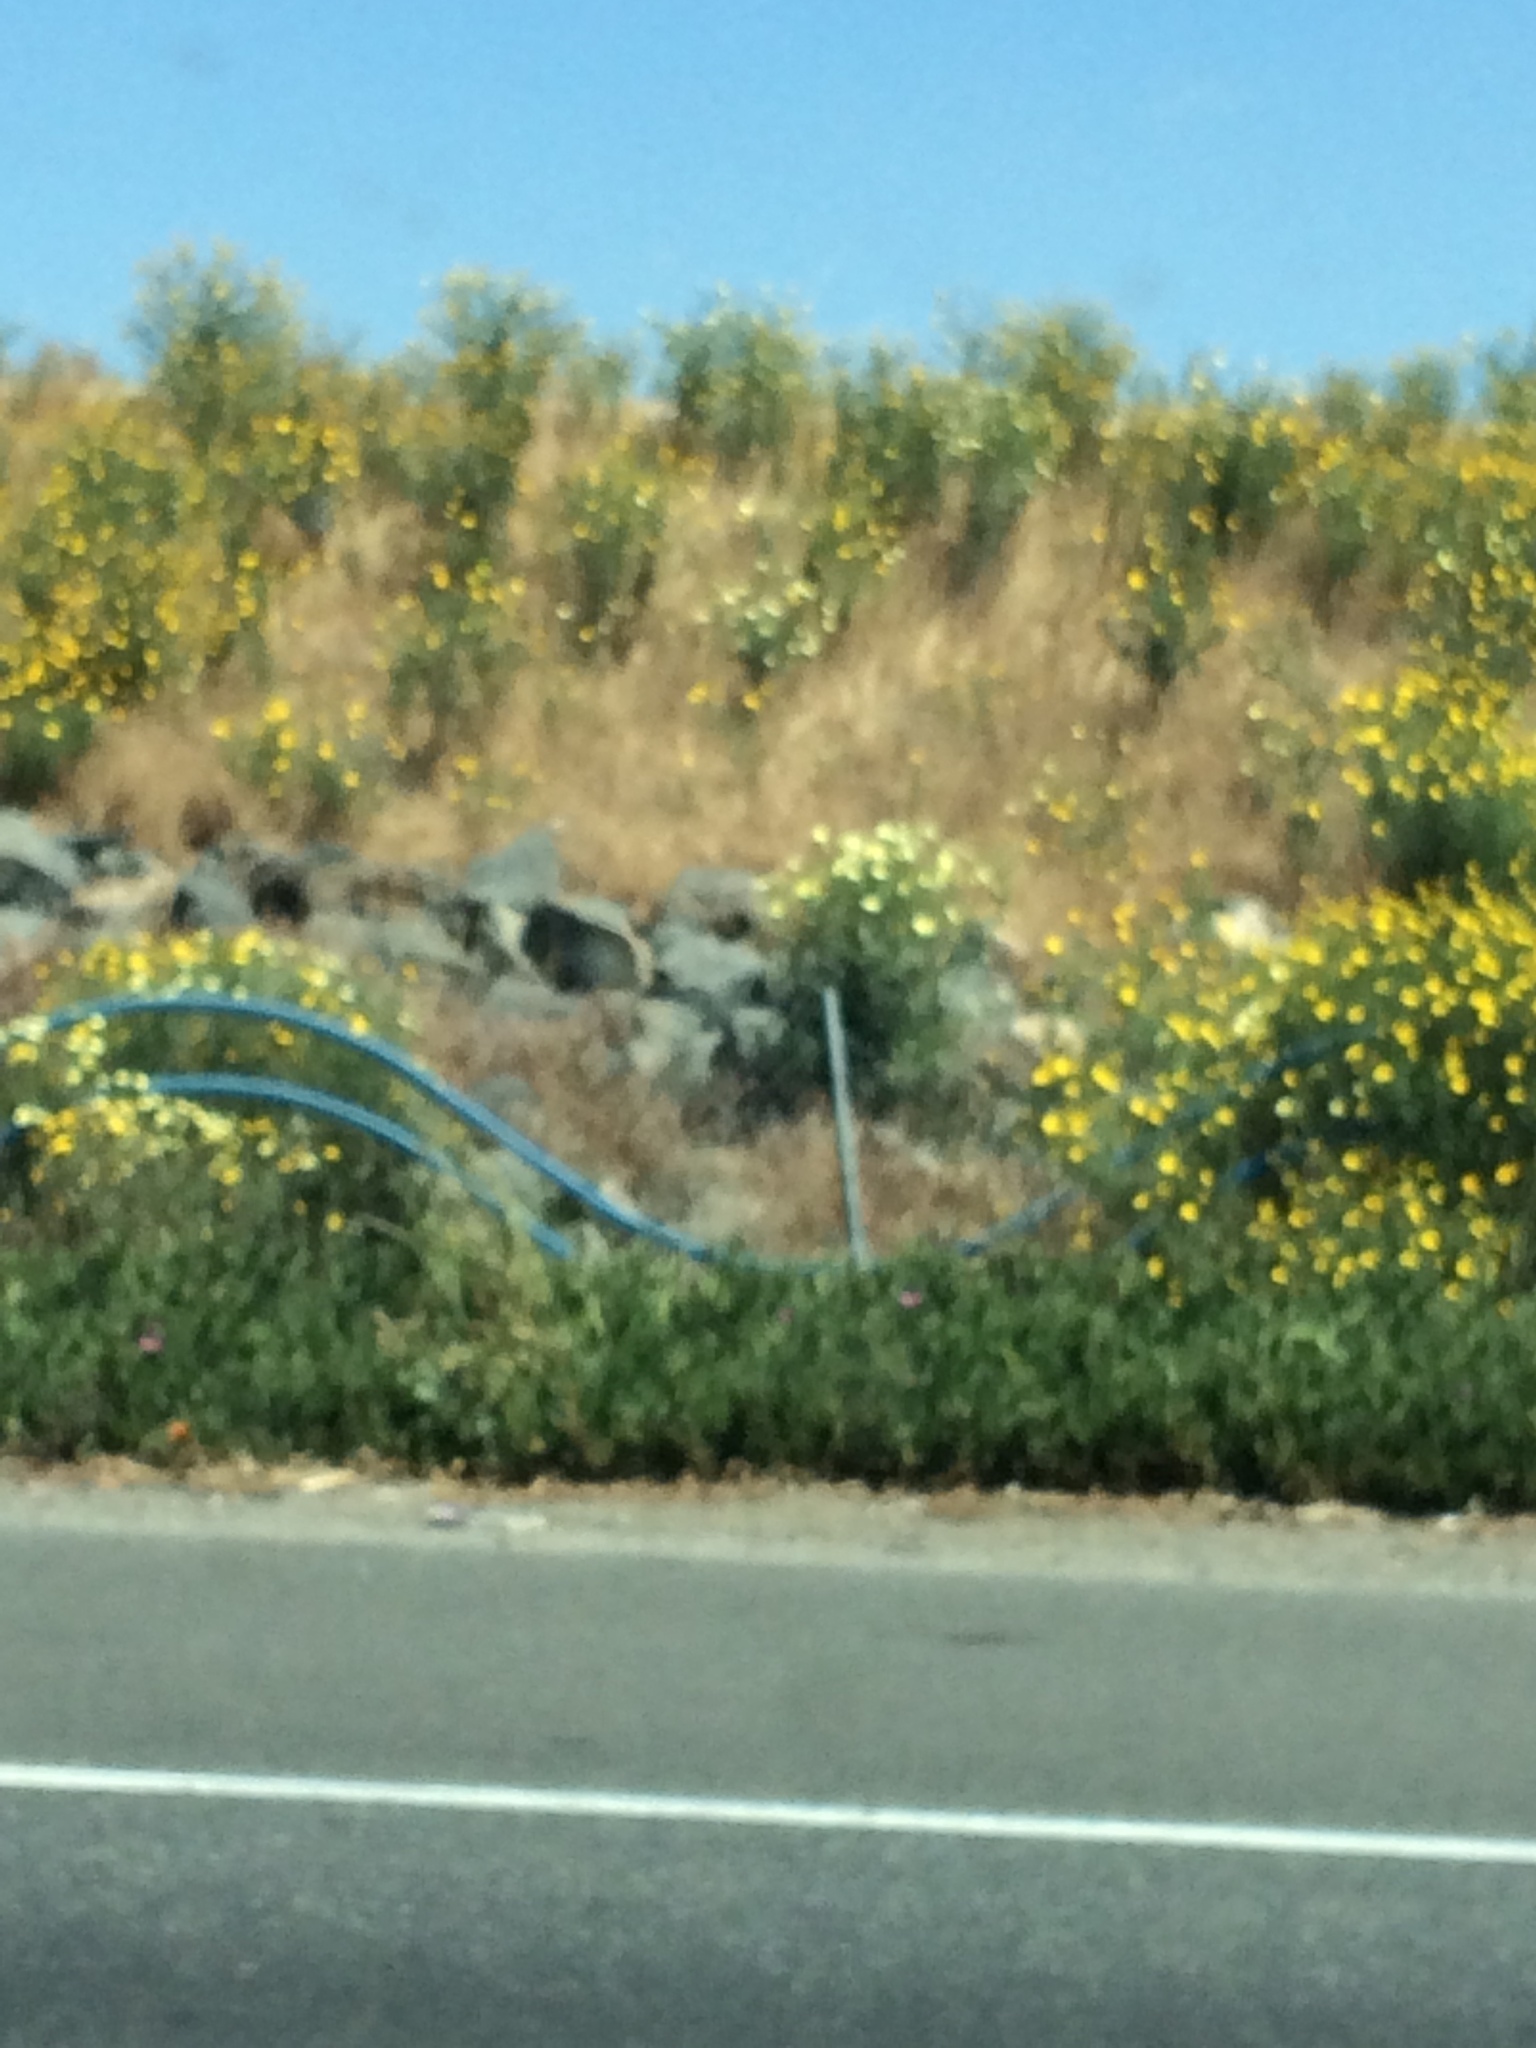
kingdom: Plantae
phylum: Tracheophyta
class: Magnoliopsida
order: Asterales
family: Asteraceae
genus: Glebionis
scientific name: Glebionis coronaria
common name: Crowndaisy
